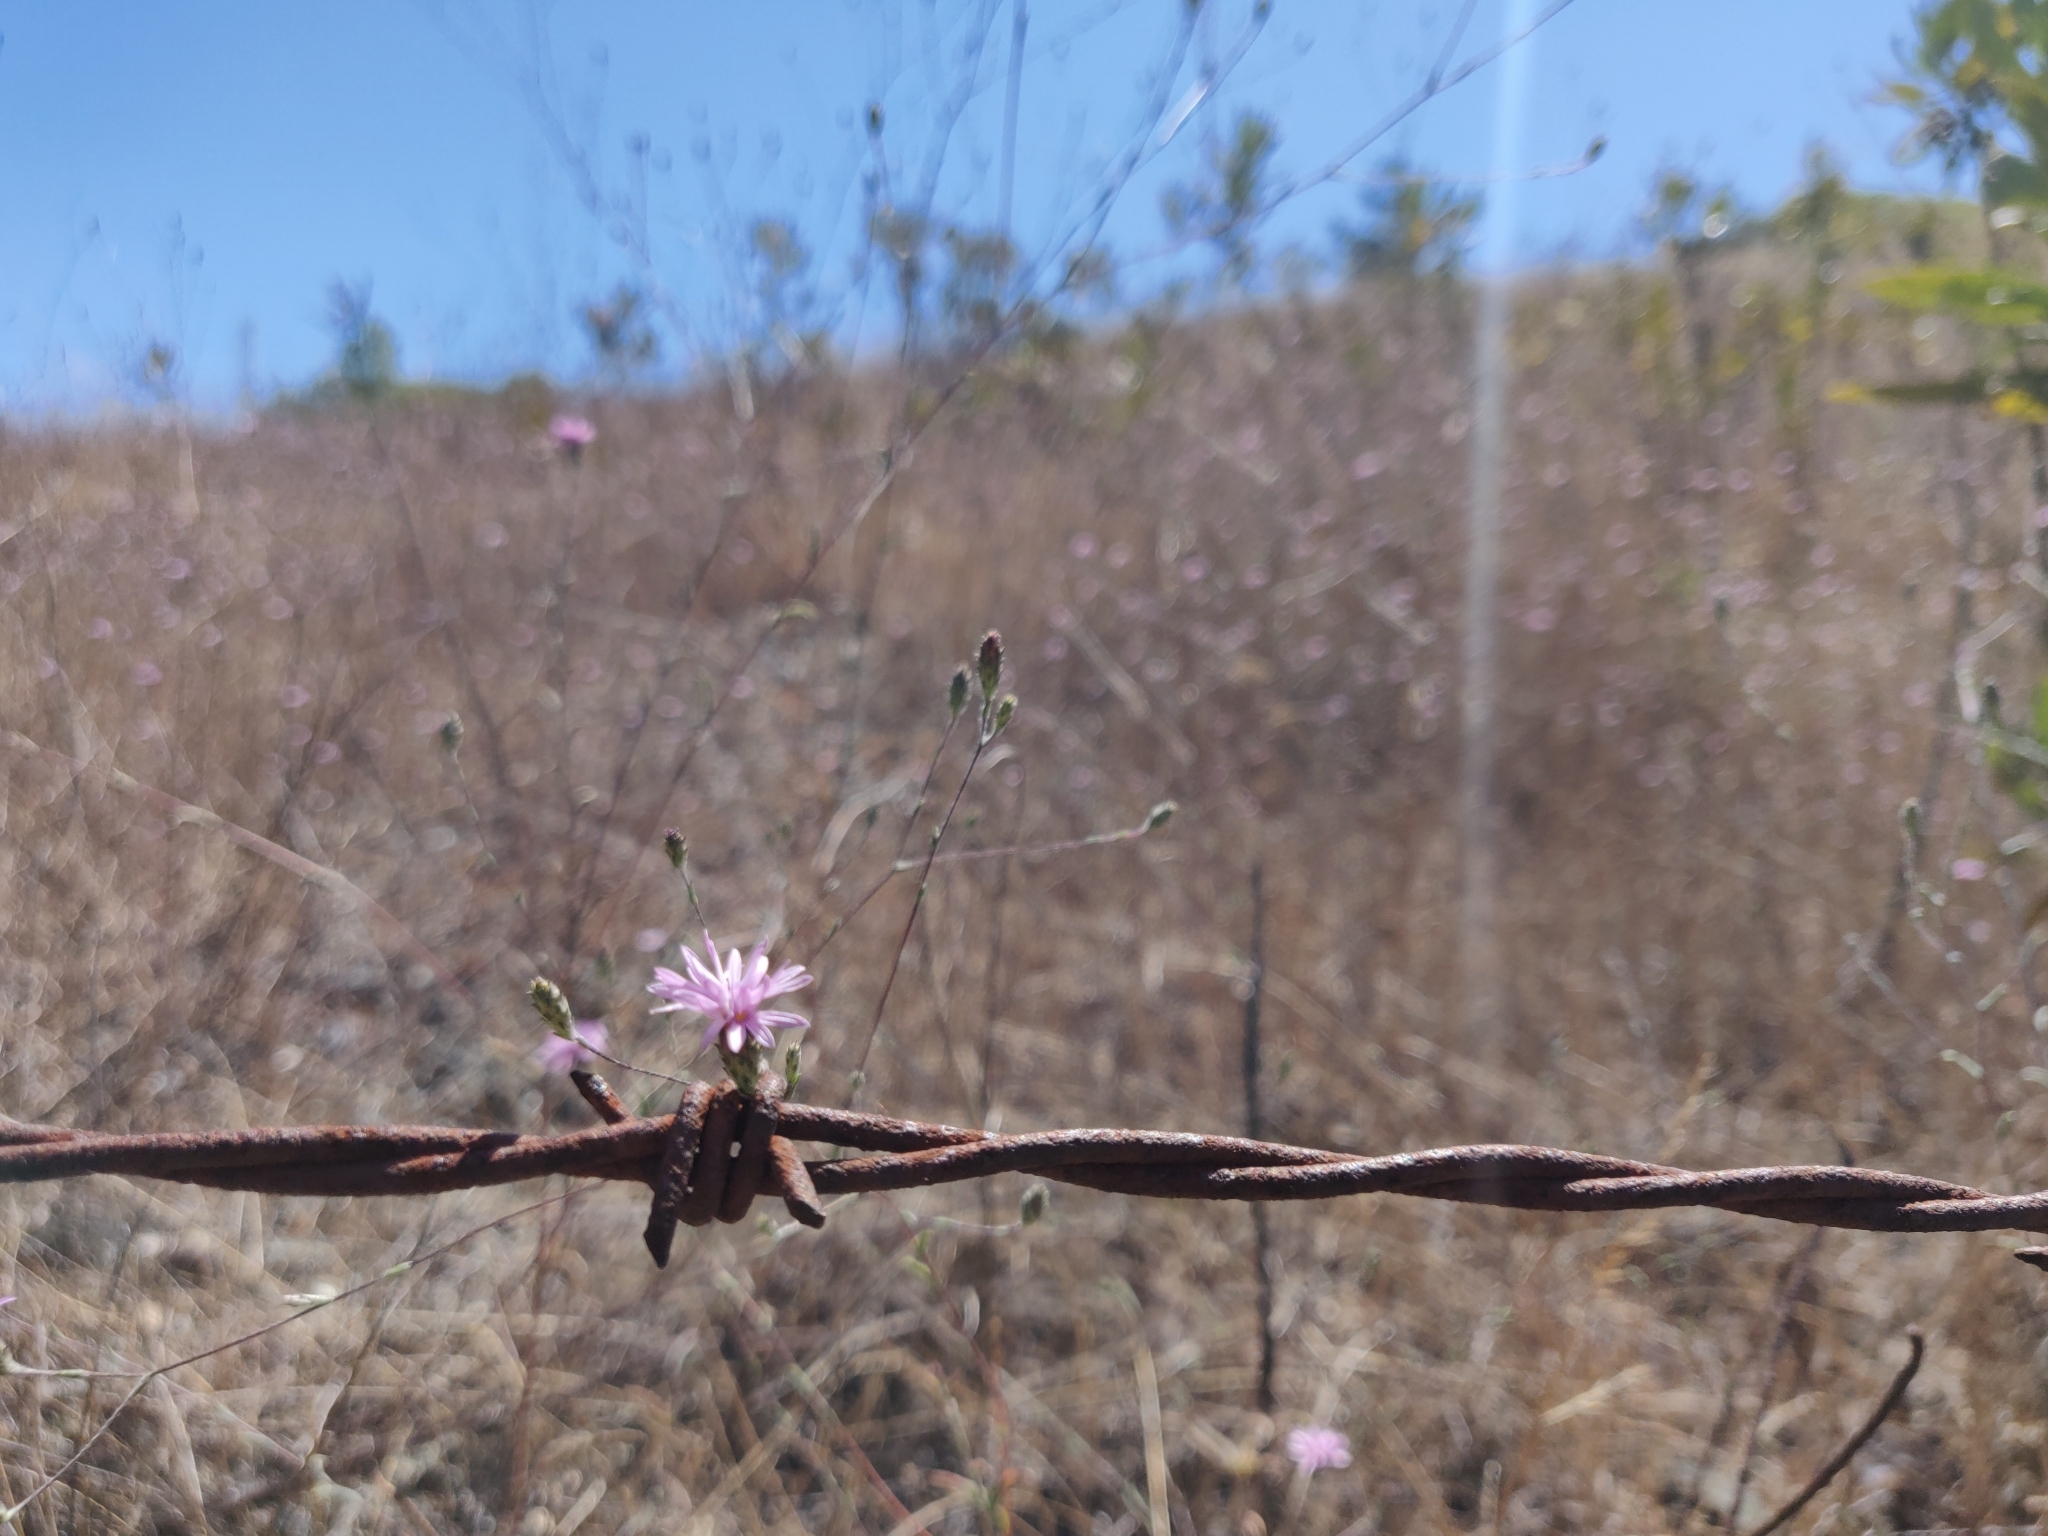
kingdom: Plantae
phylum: Tracheophyta
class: Magnoliopsida
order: Asterales
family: Asteraceae
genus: Lessingia
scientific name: Lessingia arachnoidea
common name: Crystal springs lessingia
